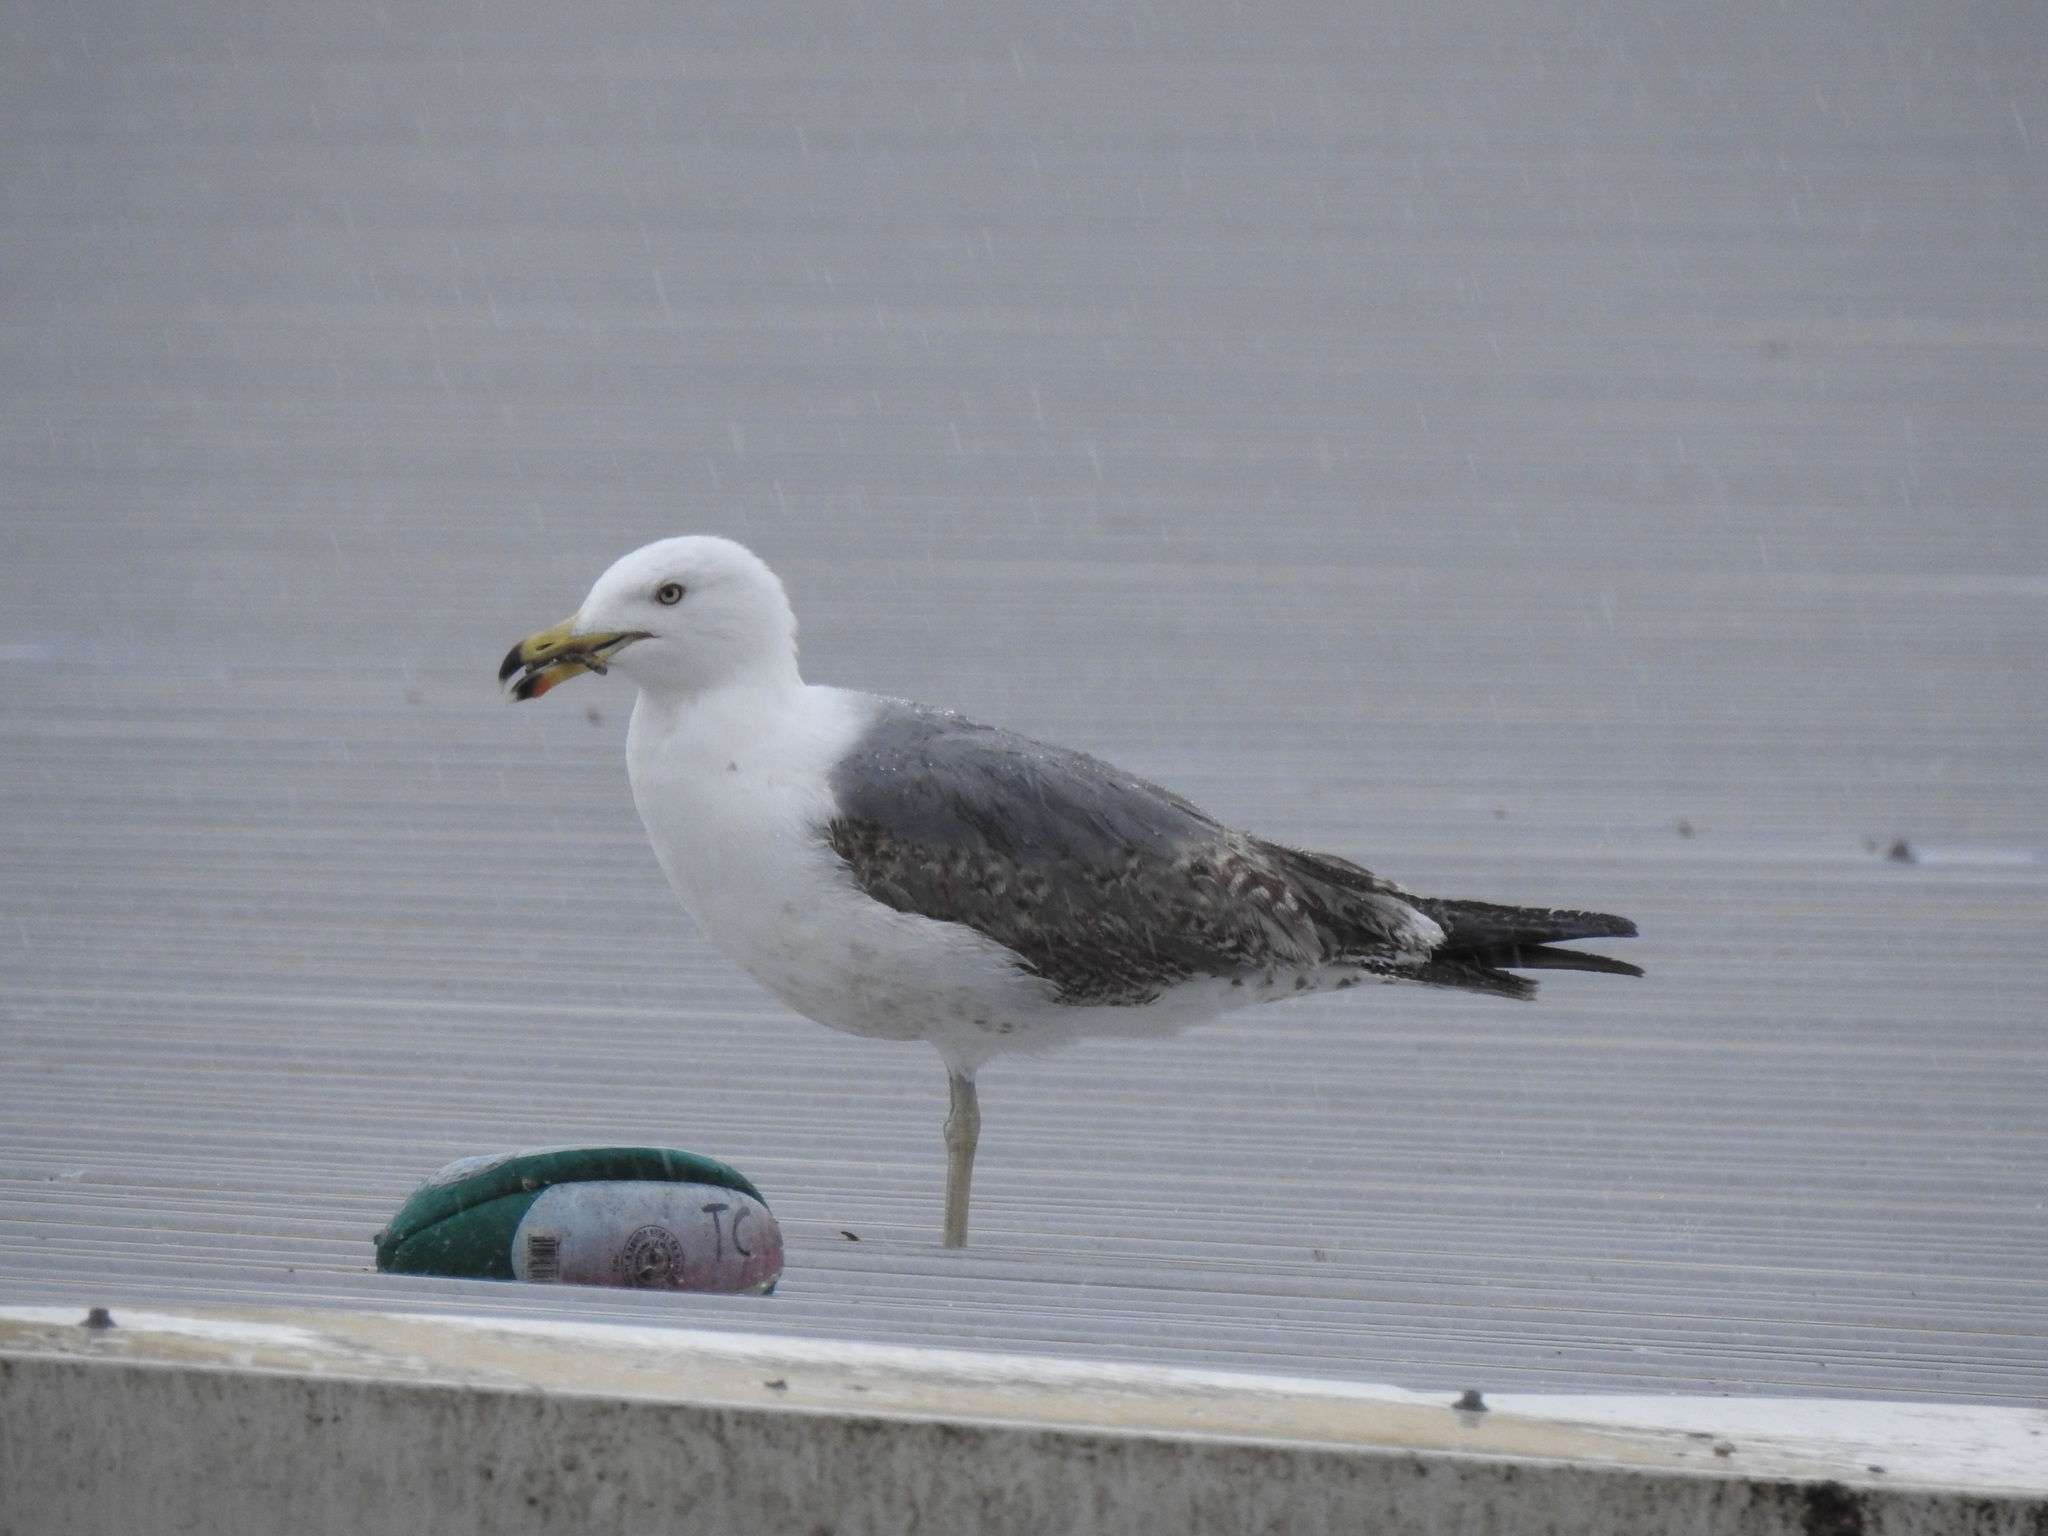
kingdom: Animalia
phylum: Chordata
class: Aves
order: Charadriiformes
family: Laridae
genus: Larus
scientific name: Larus michahellis
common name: Yellow-legged gull
